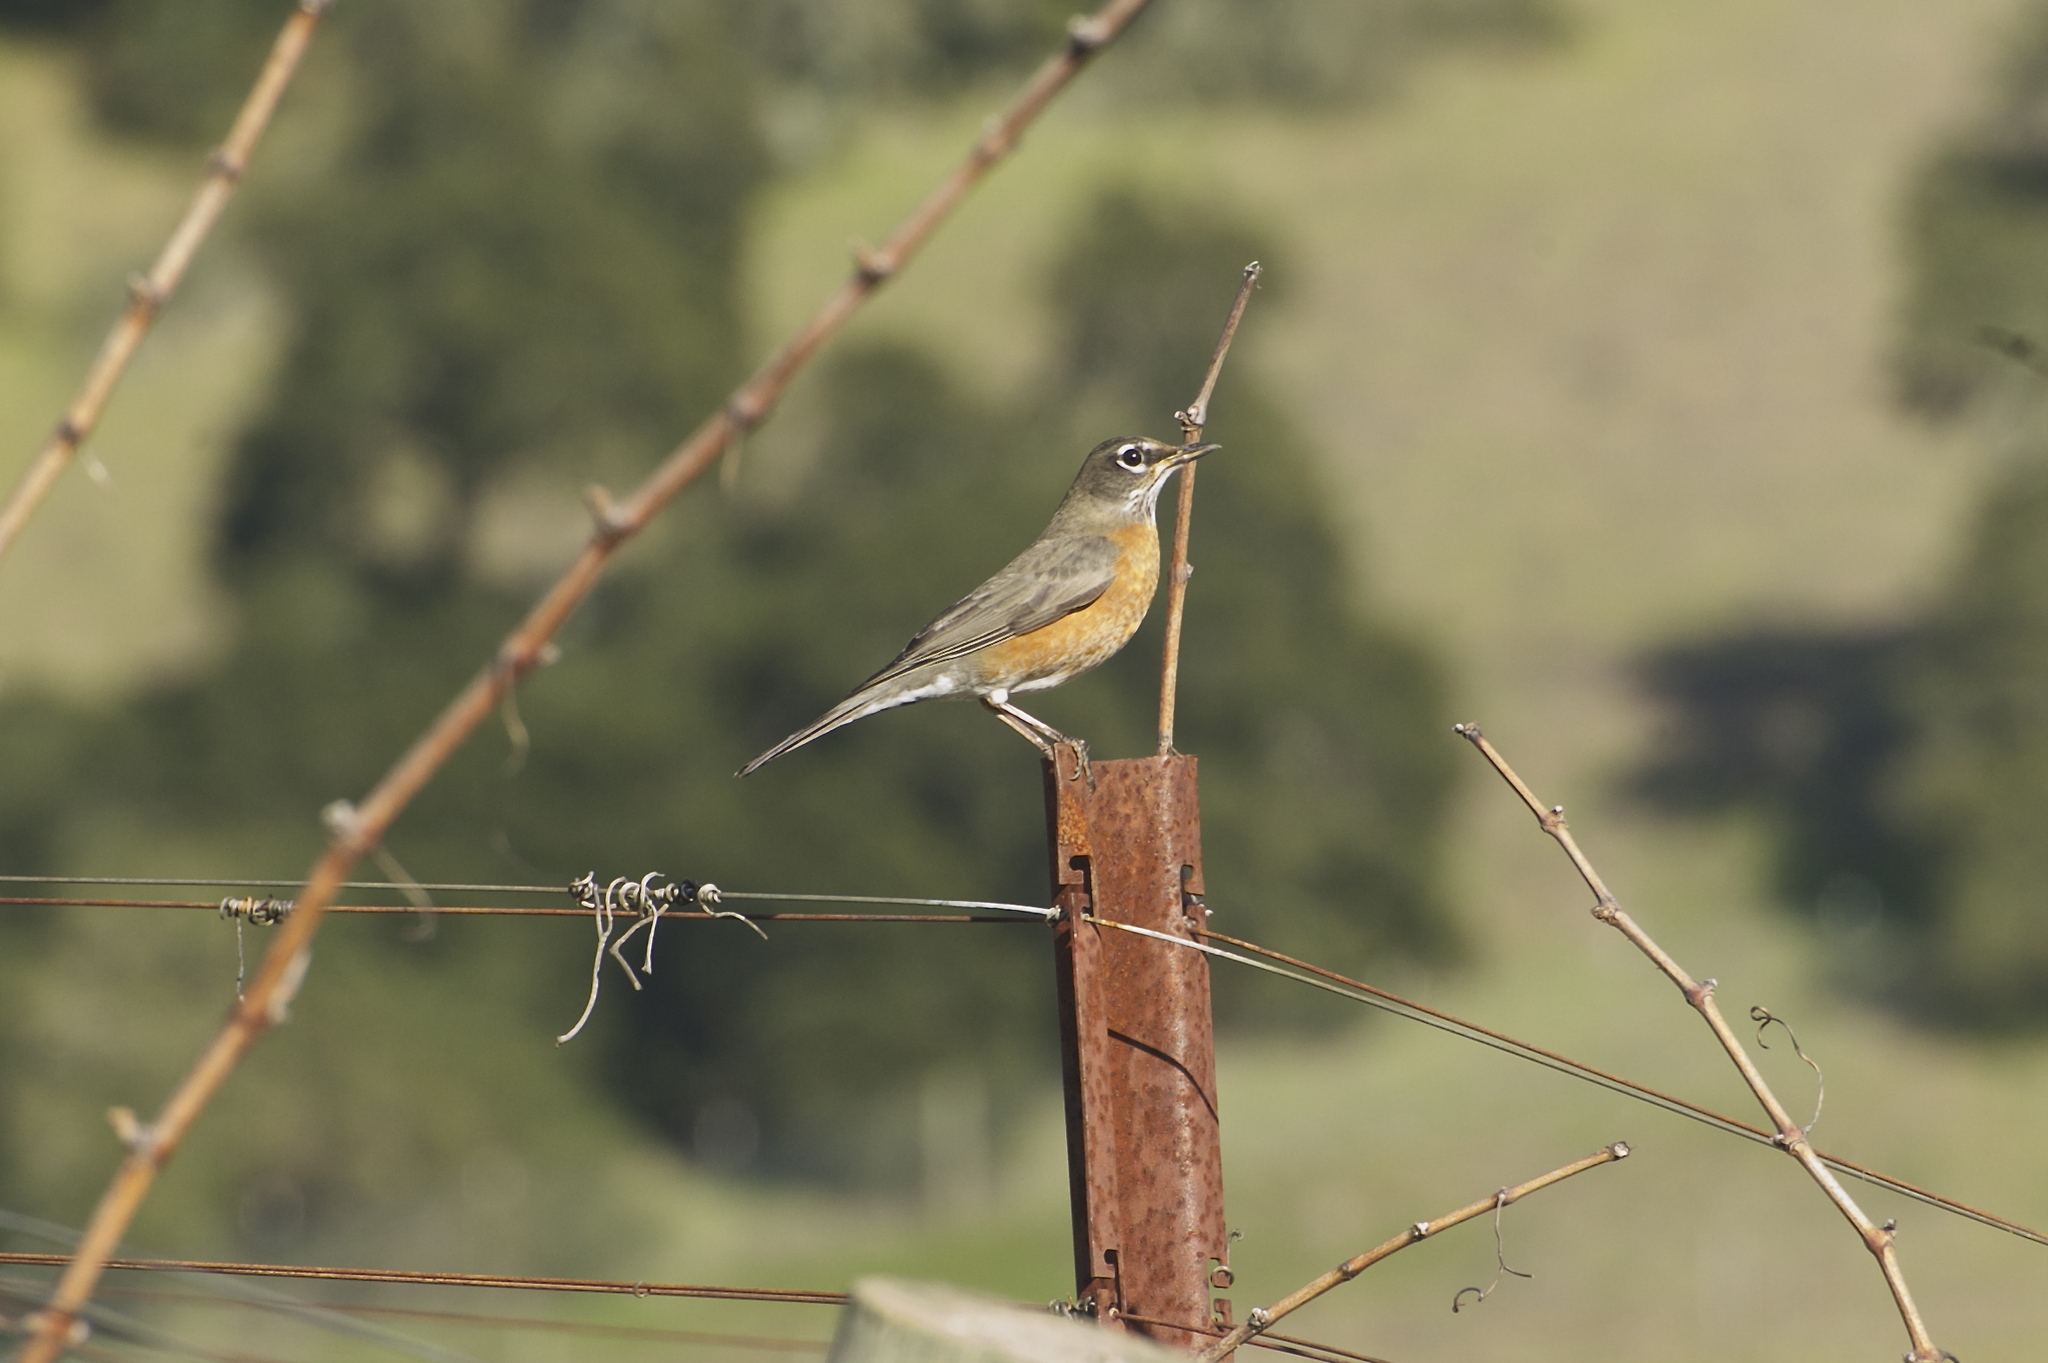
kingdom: Animalia
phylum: Chordata
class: Aves
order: Passeriformes
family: Turdidae
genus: Turdus
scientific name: Turdus migratorius
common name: American robin
